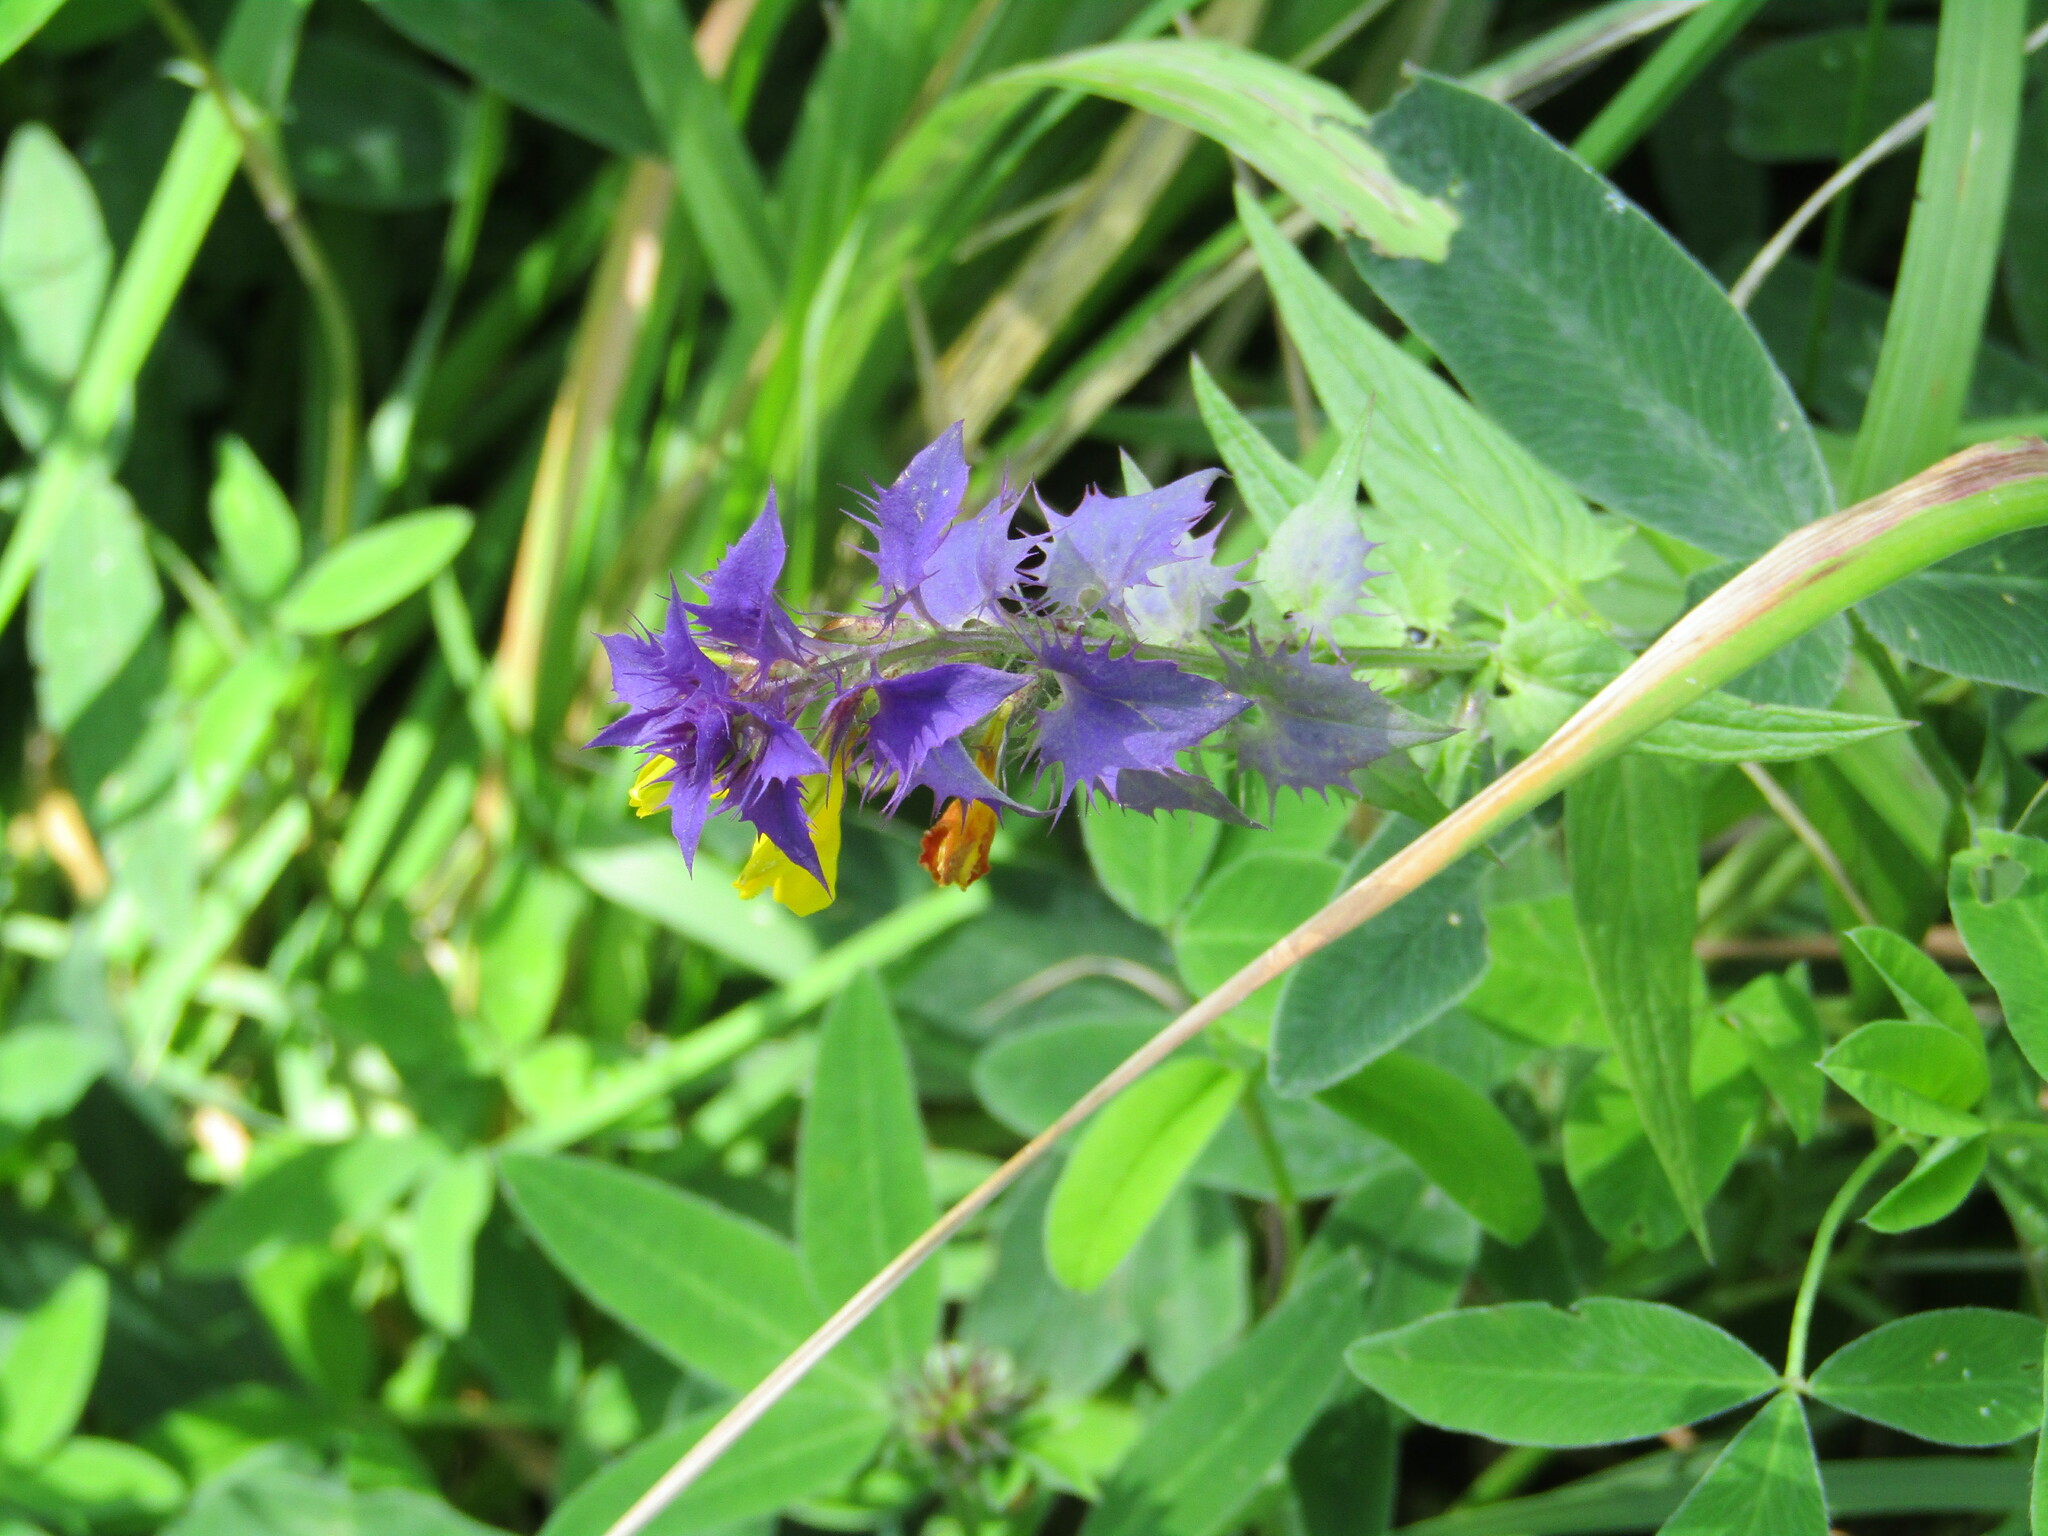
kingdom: Plantae
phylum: Tracheophyta
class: Magnoliopsida
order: Lamiales
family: Orobanchaceae
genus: Melampyrum
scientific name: Melampyrum nemorosum
